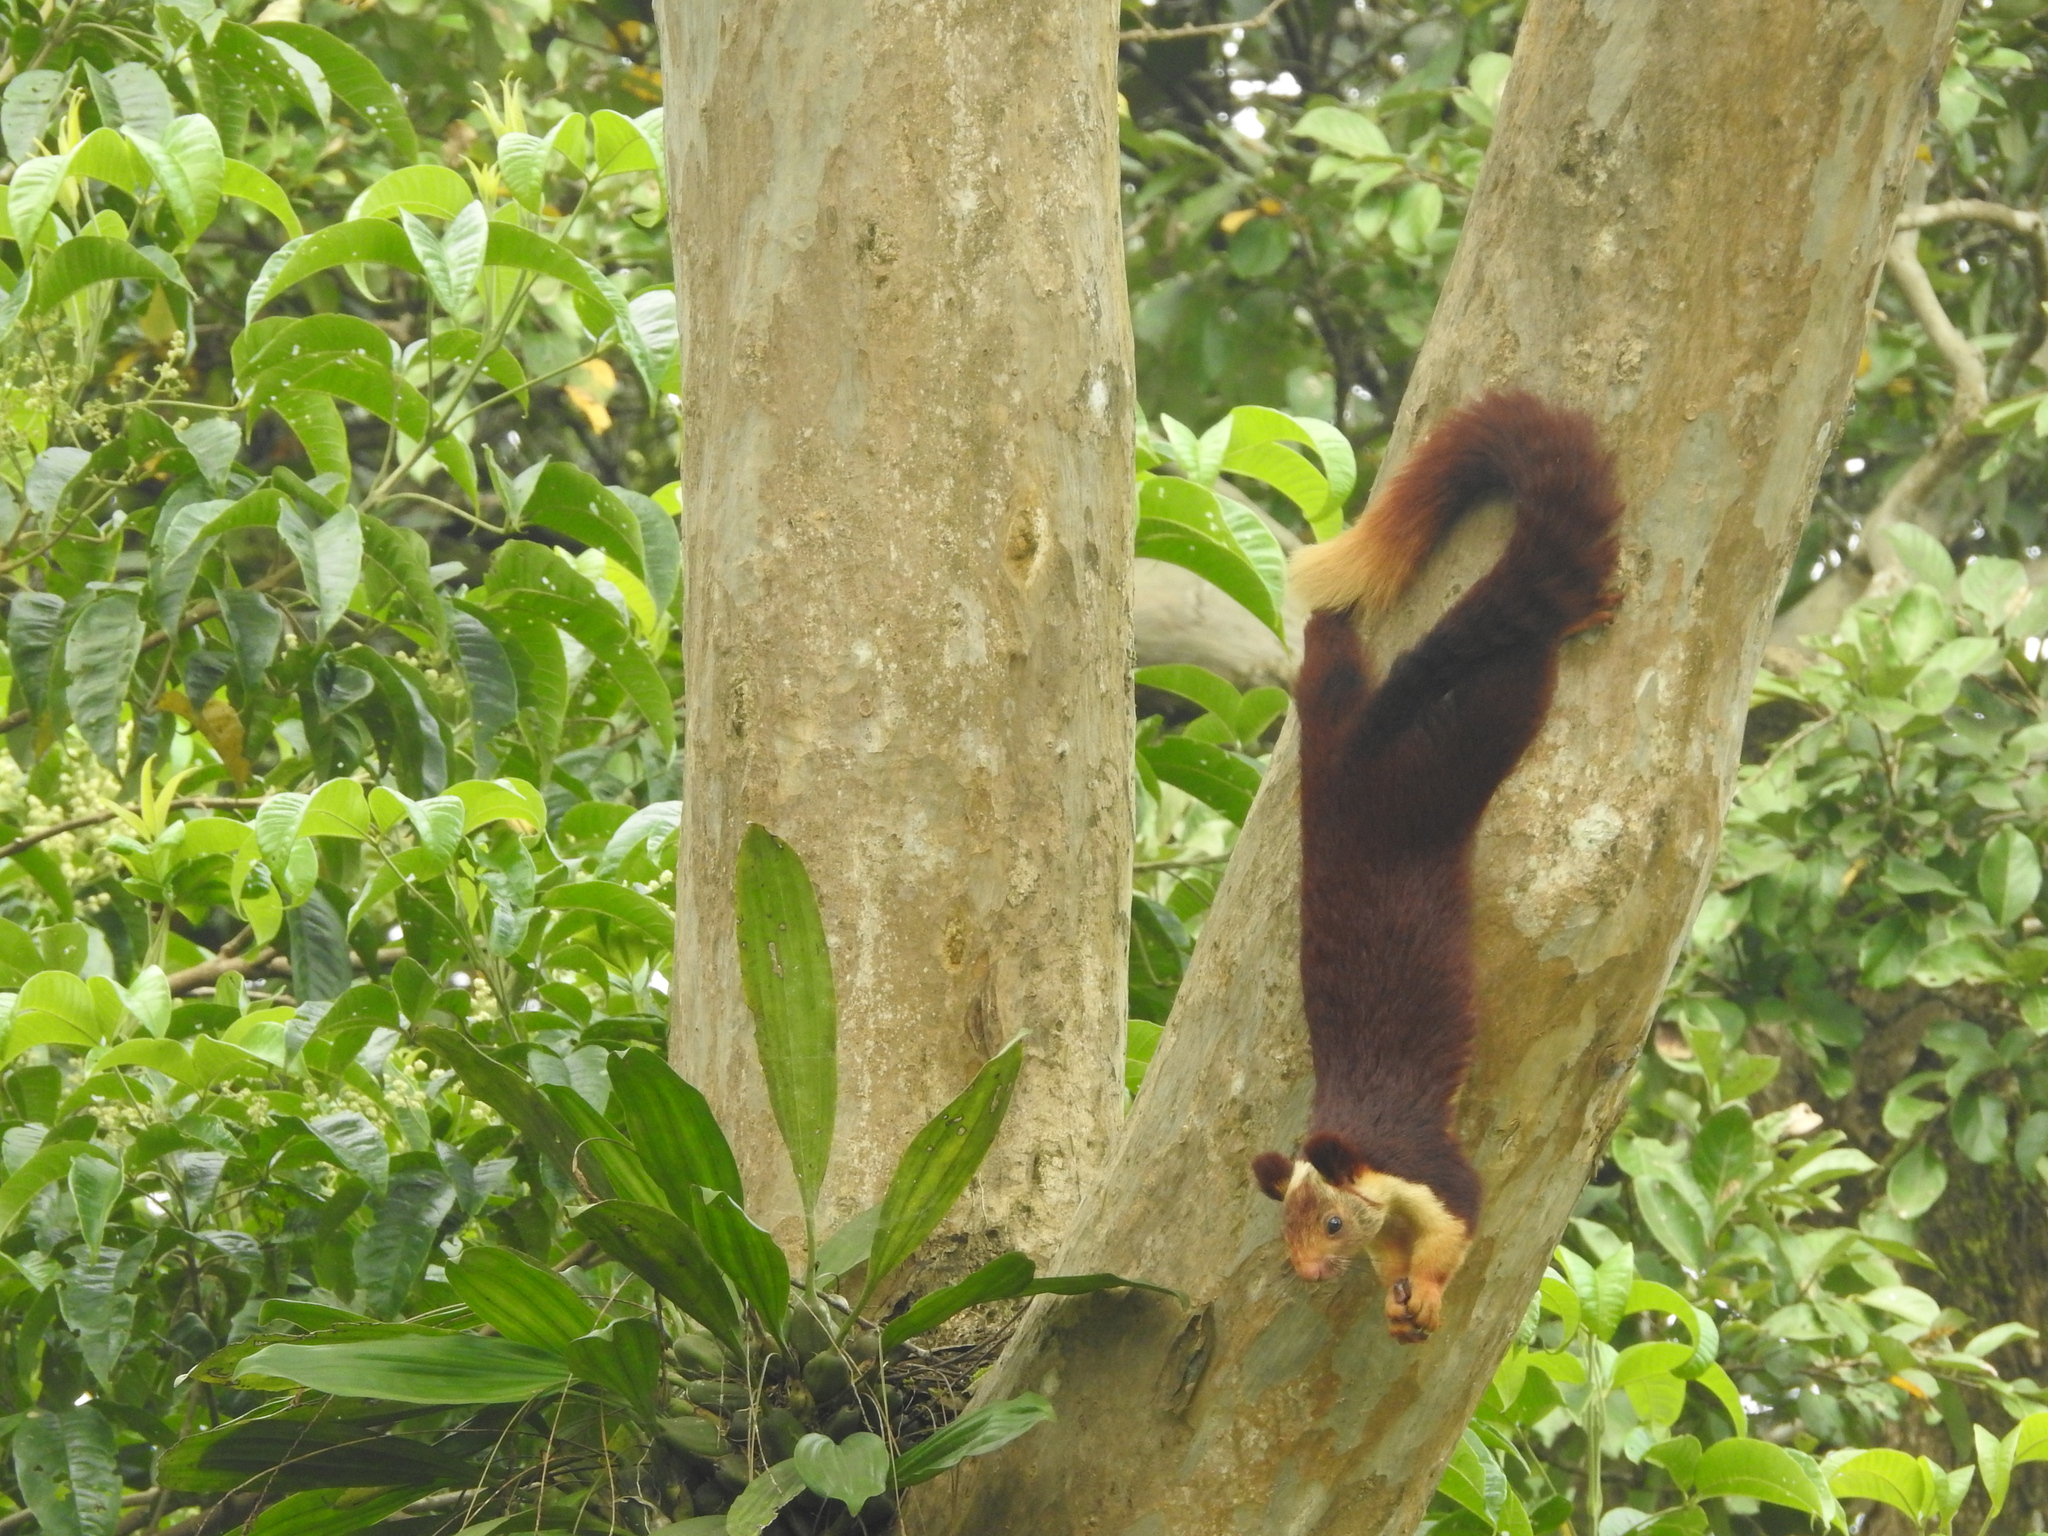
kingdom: Animalia
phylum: Chordata
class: Mammalia
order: Rodentia
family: Sciuridae
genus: Ratufa
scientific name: Ratufa indica
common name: Indian giant squirrel
